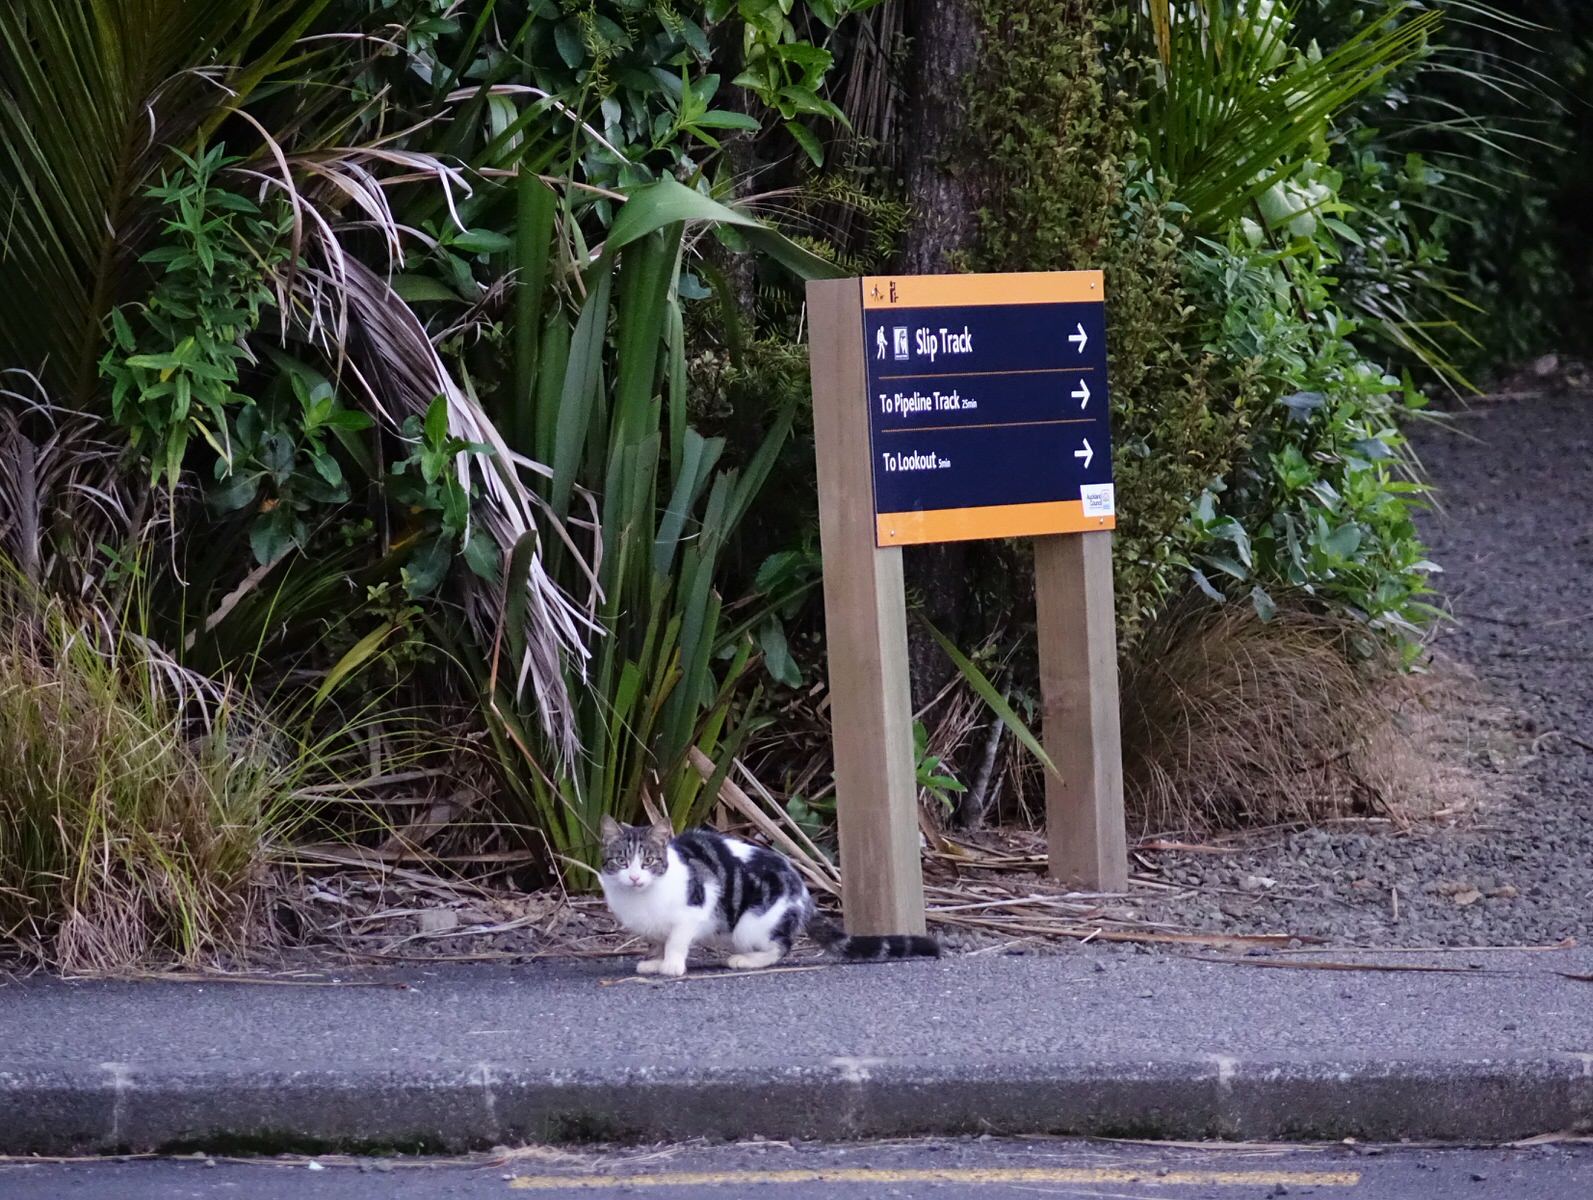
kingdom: Animalia
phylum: Chordata
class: Mammalia
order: Carnivora
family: Felidae
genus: Felis
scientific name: Felis catus
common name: Domestic cat
